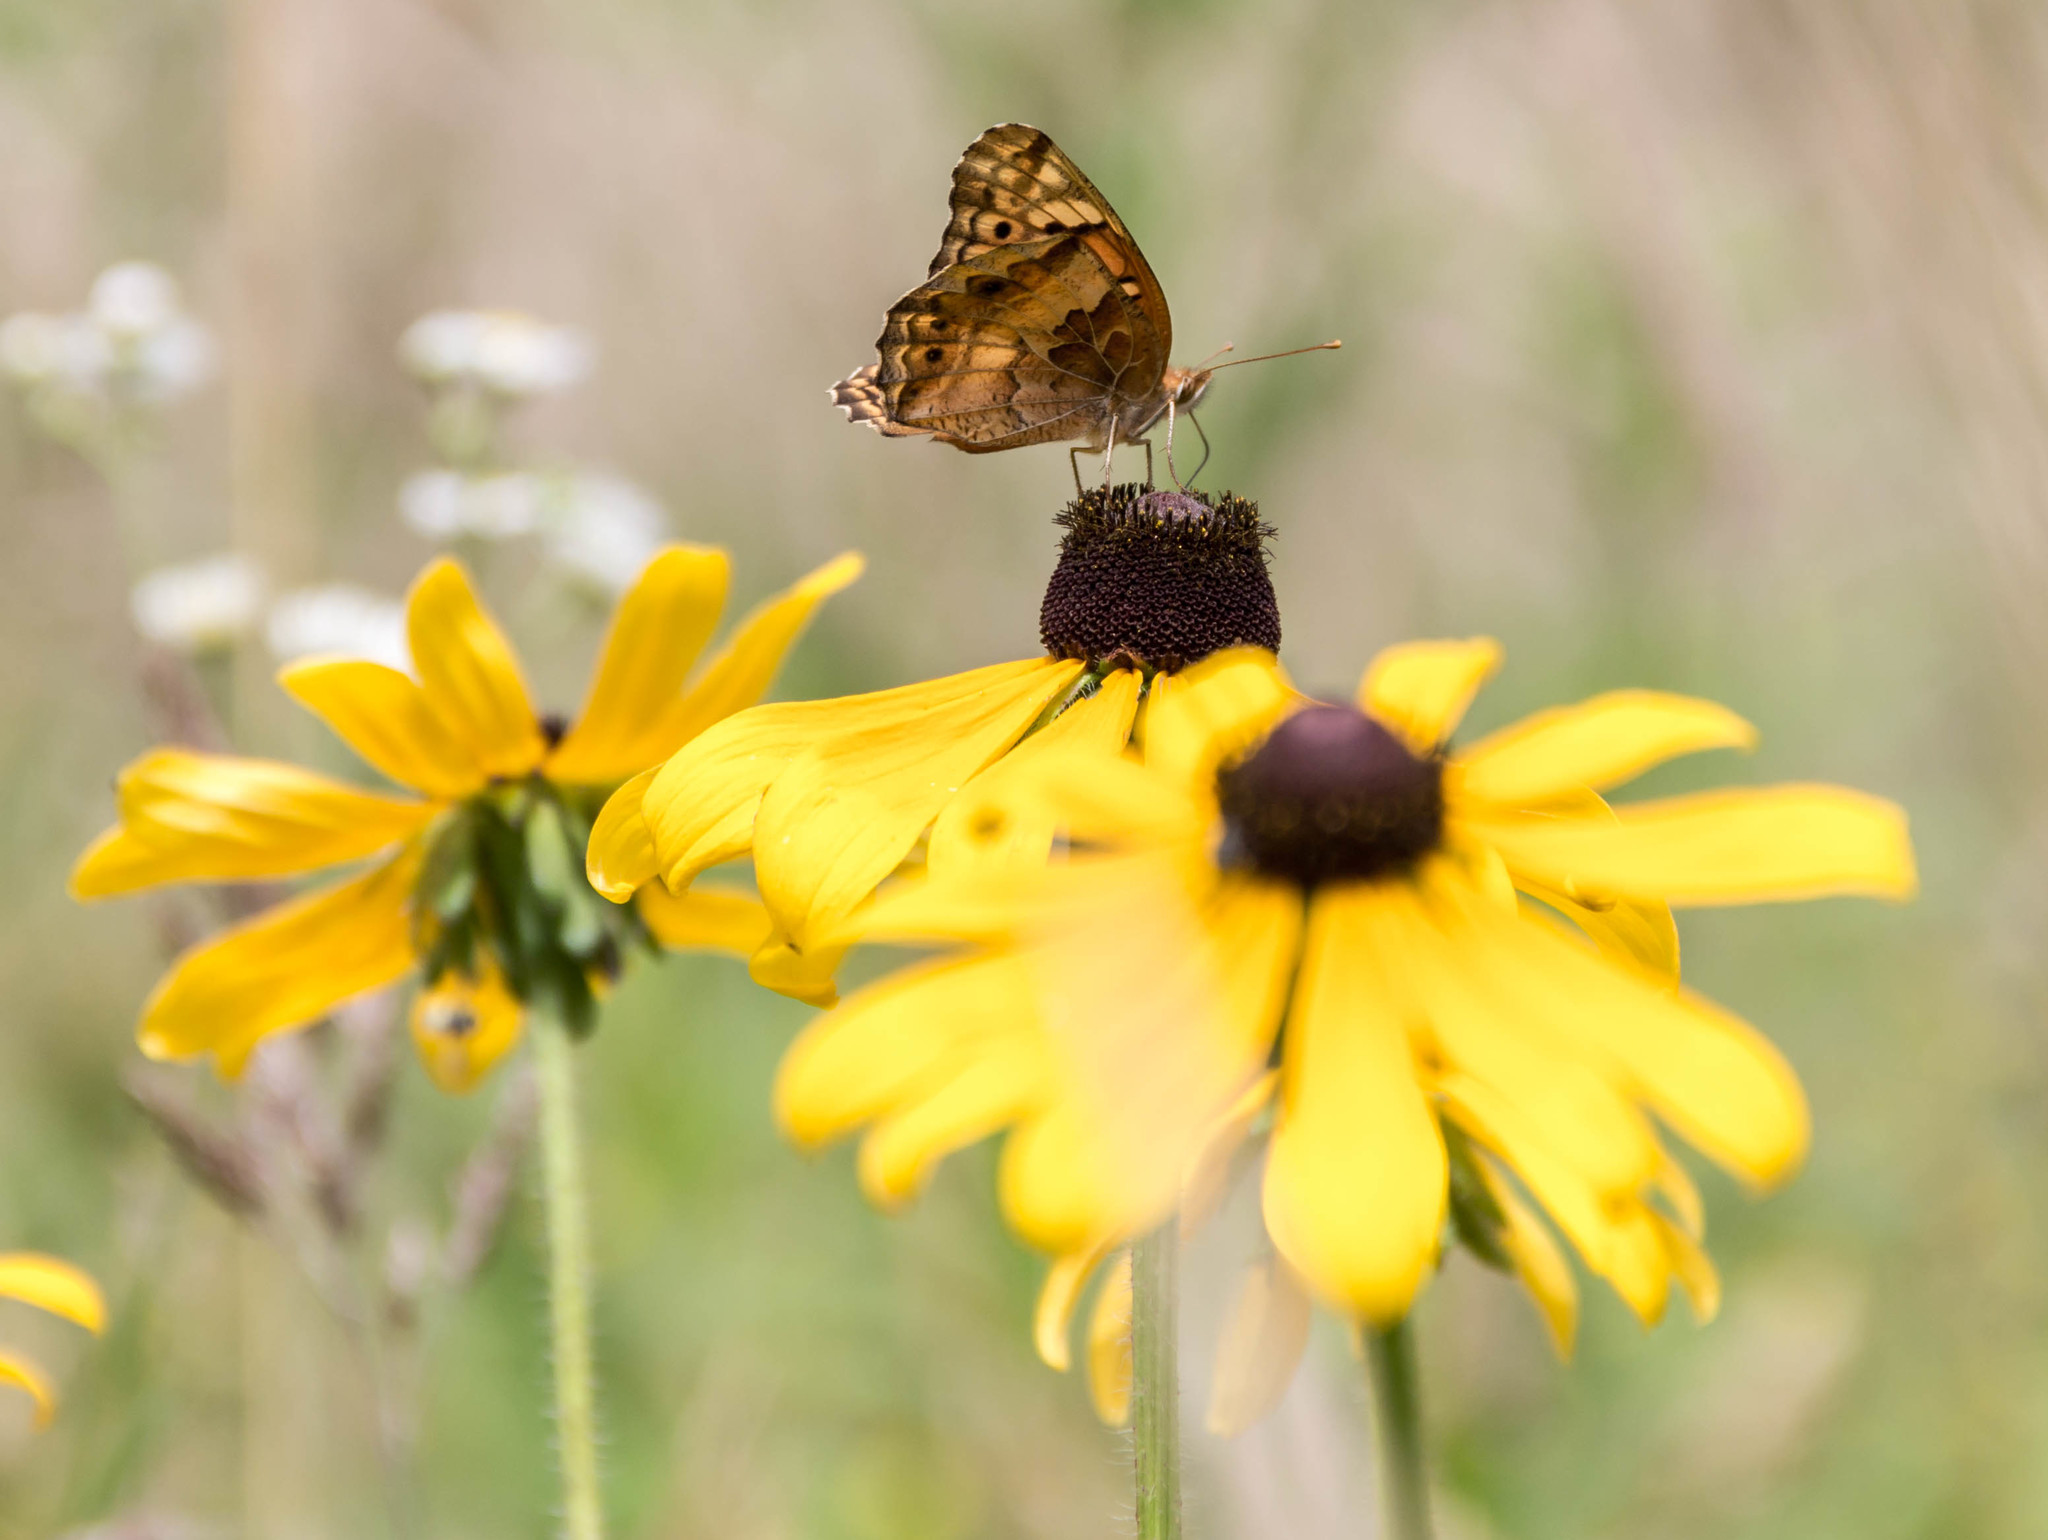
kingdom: Animalia
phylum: Arthropoda
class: Insecta
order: Lepidoptera
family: Nymphalidae
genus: Euptoieta
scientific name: Euptoieta claudia
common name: Variegated fritillary
